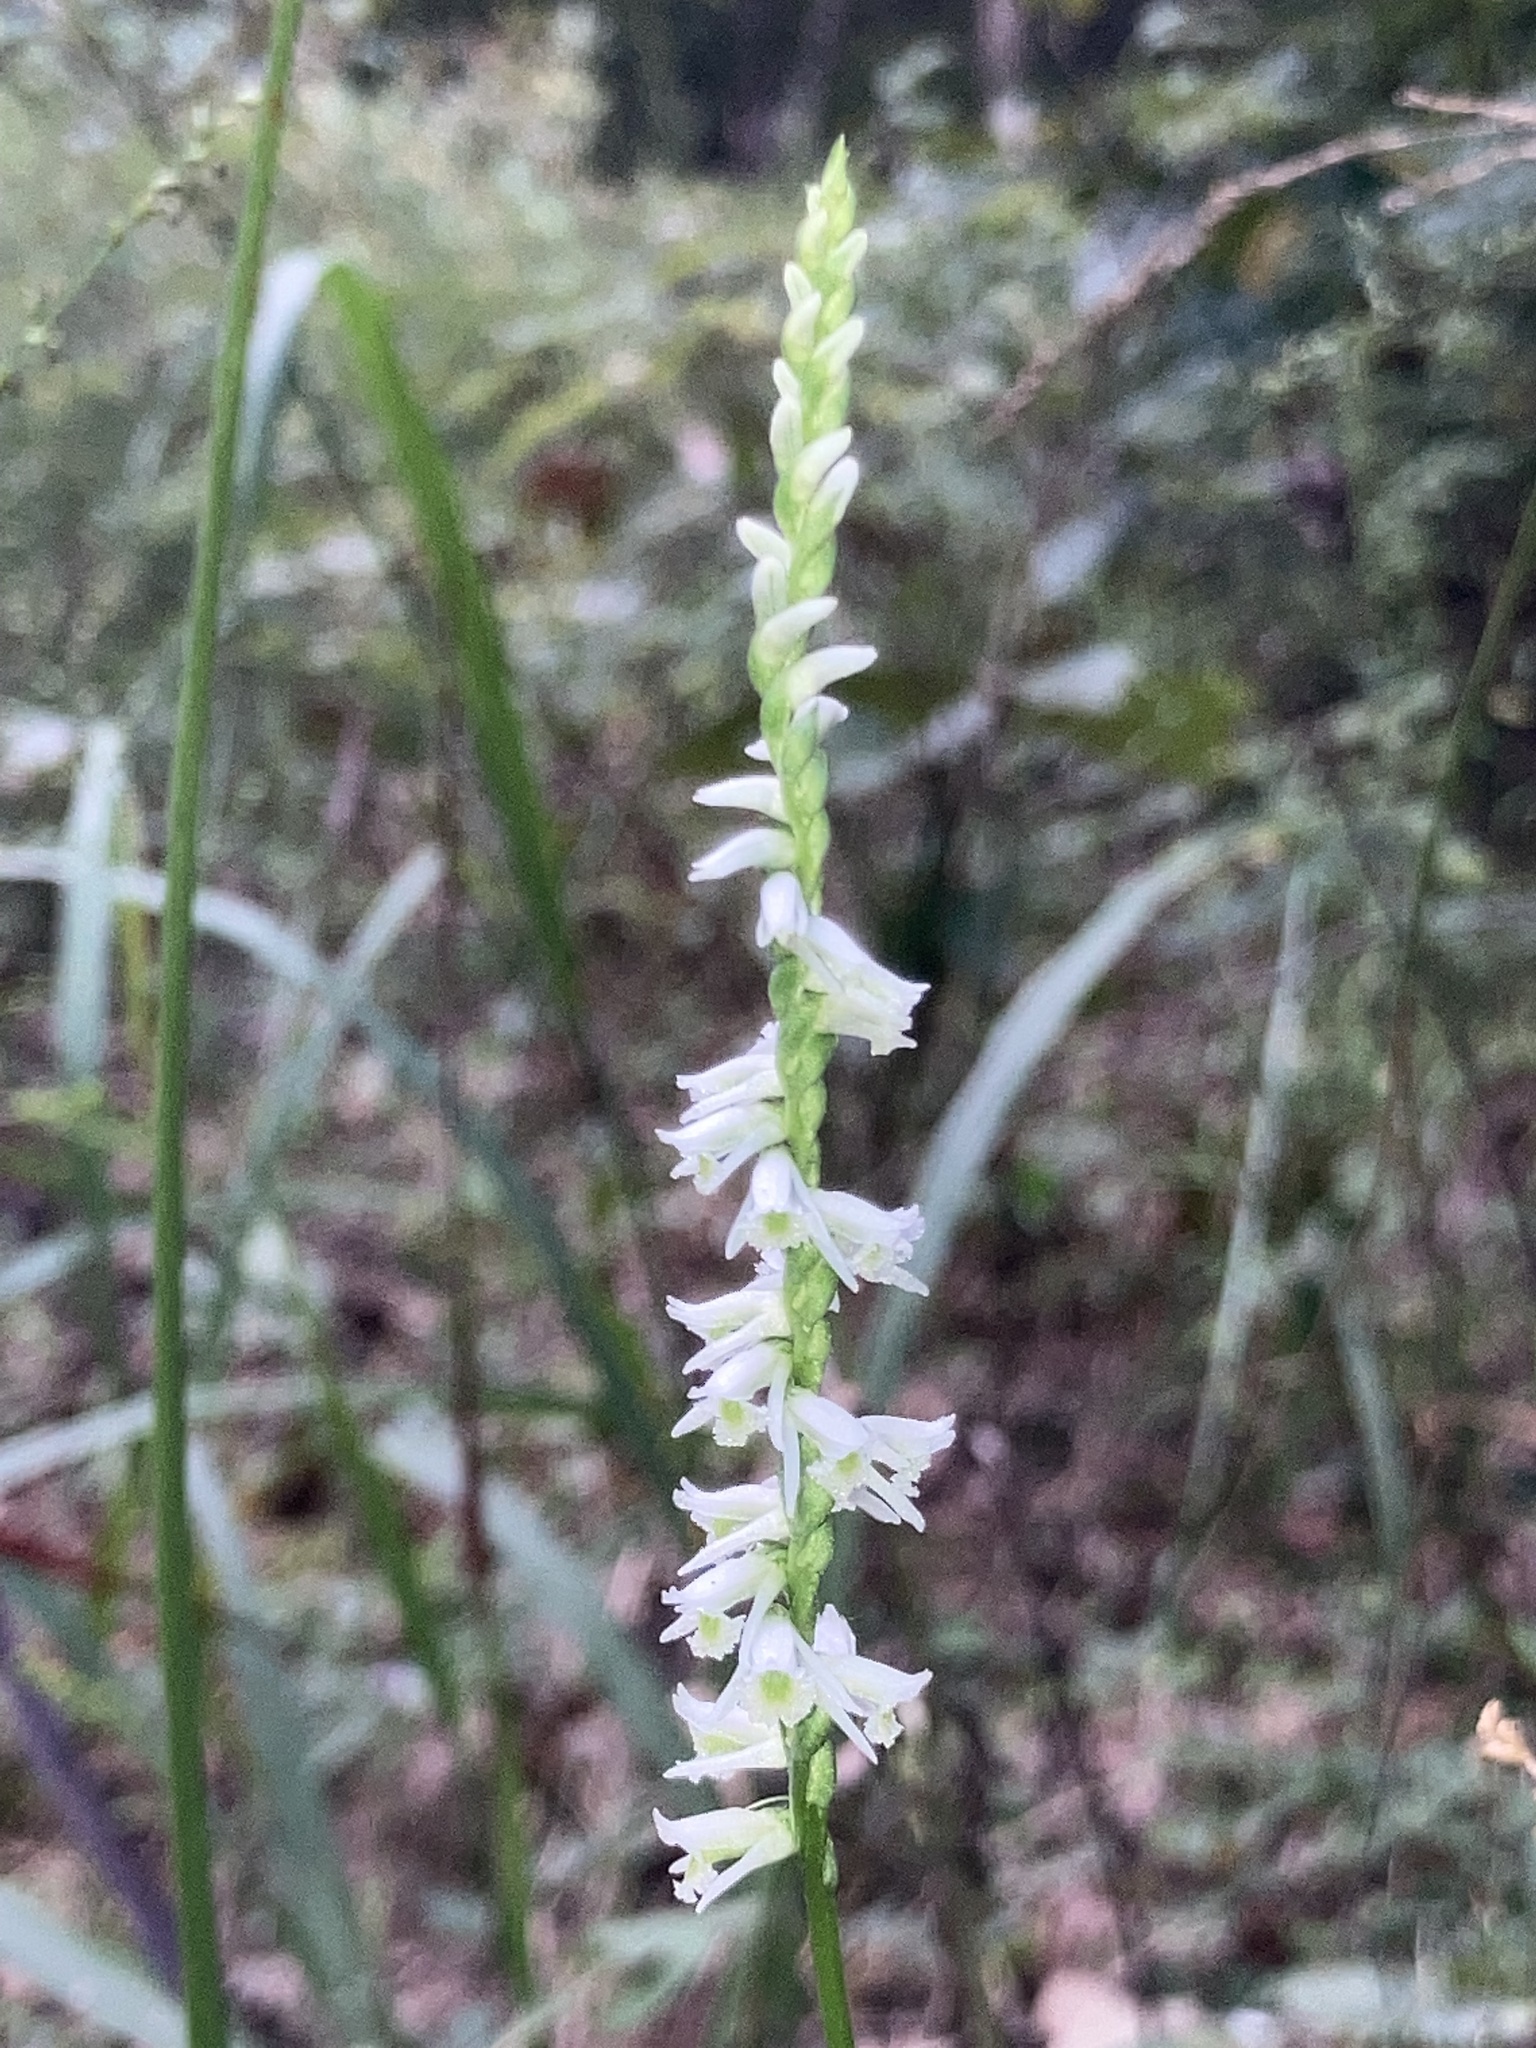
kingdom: Plantae
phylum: Tracheophyta
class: Liliopsida
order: Asparagales
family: Orchidaceae
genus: Spiranthes
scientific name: Spiranthes lacera
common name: Northern slender ladies'-tresses
